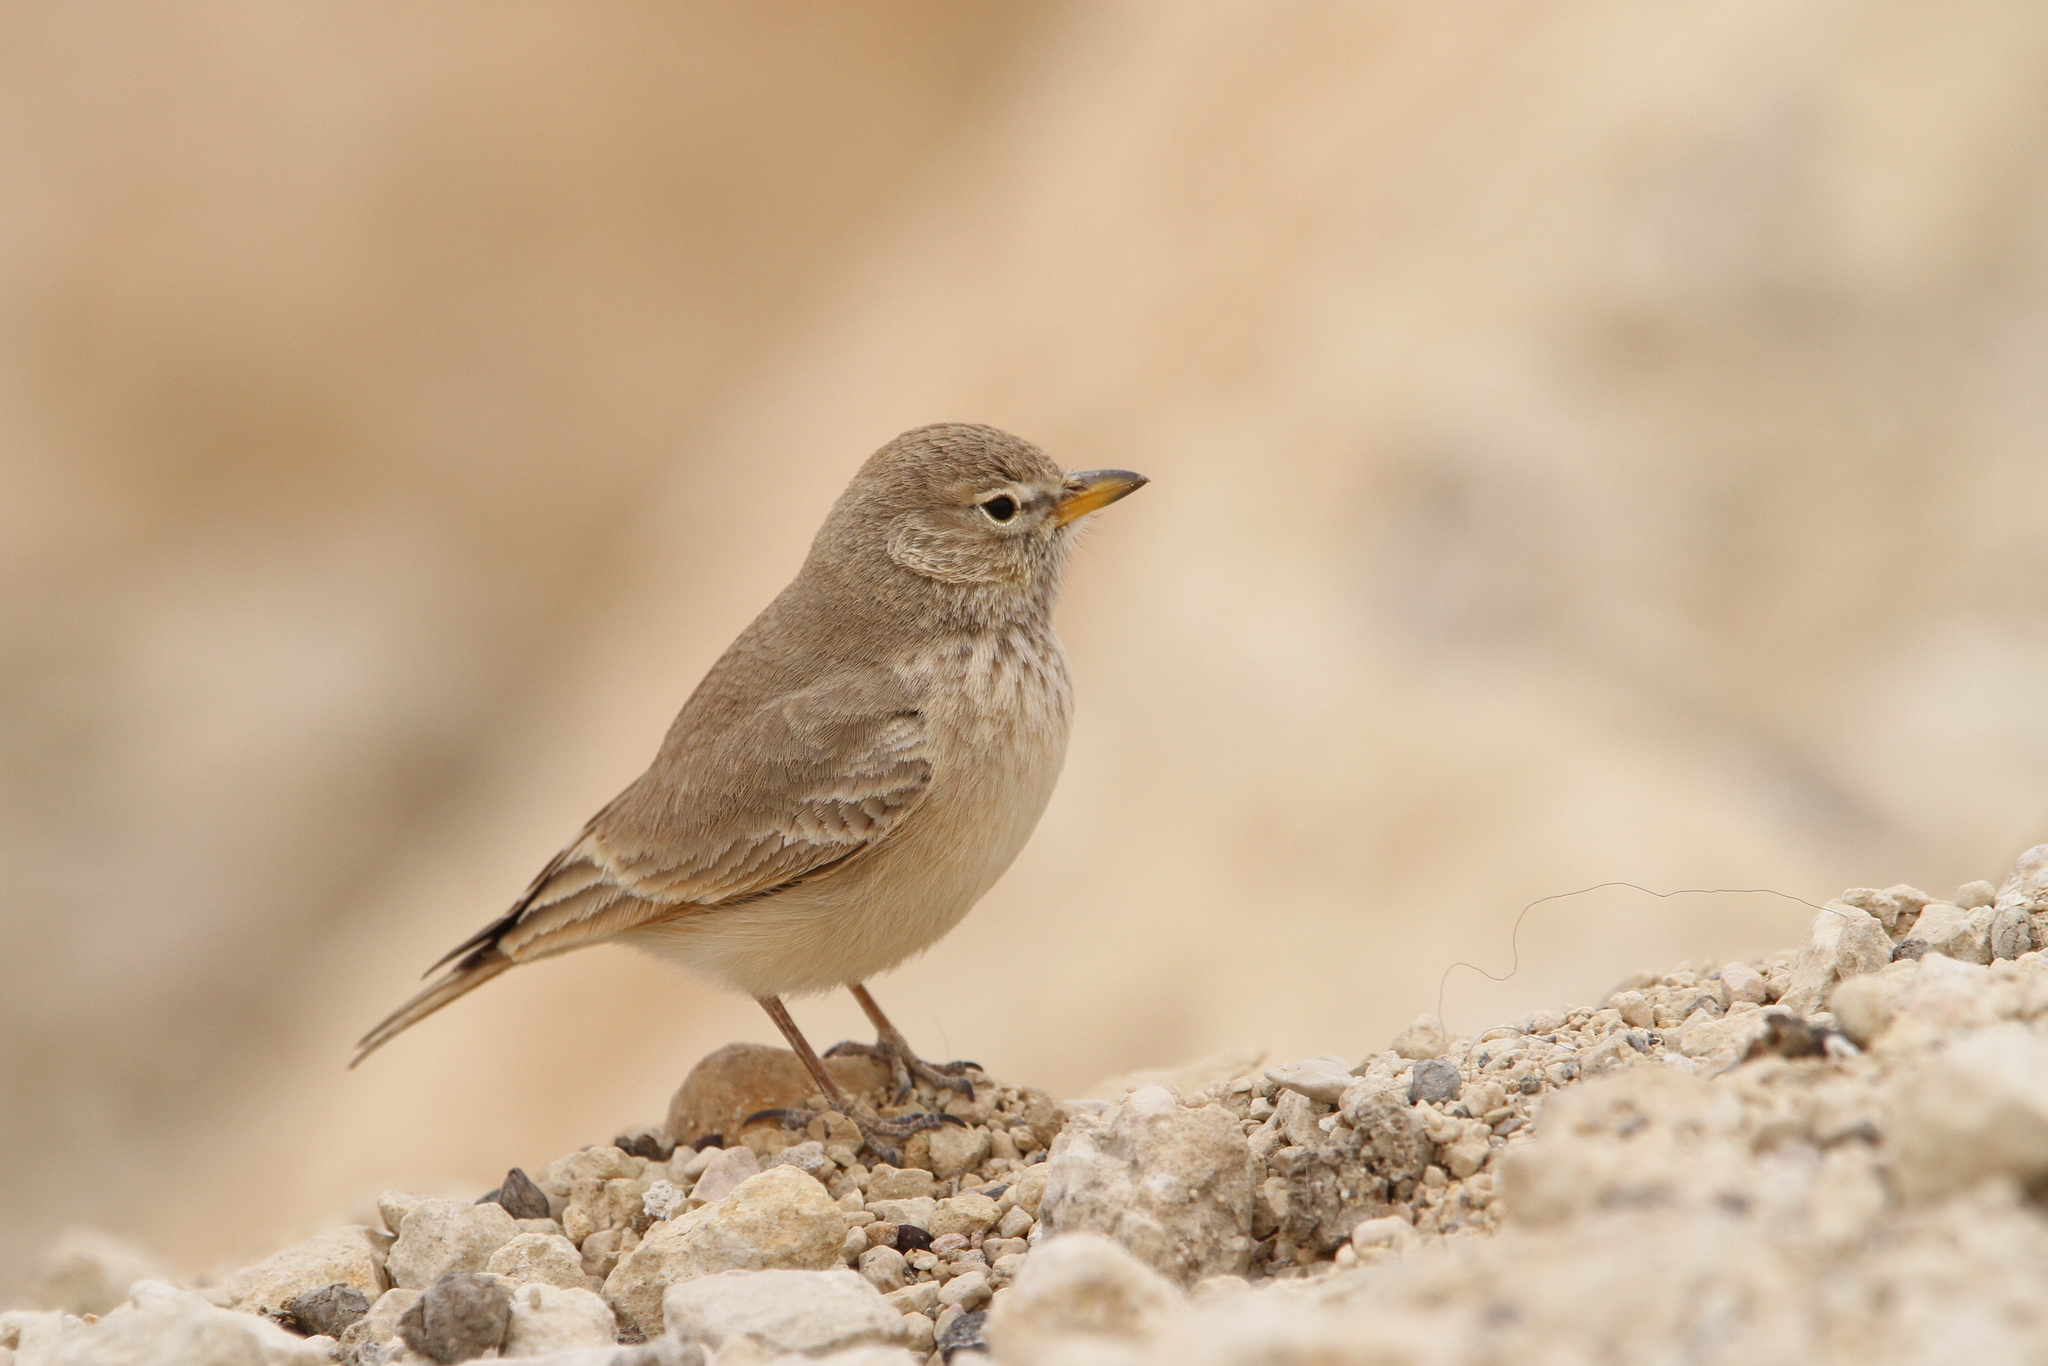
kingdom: Animalia
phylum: Chordata
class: Aves
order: Passeriformes
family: Alaudidae
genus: Ammomanes
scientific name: Ammomanes deserti
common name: Desert lark
